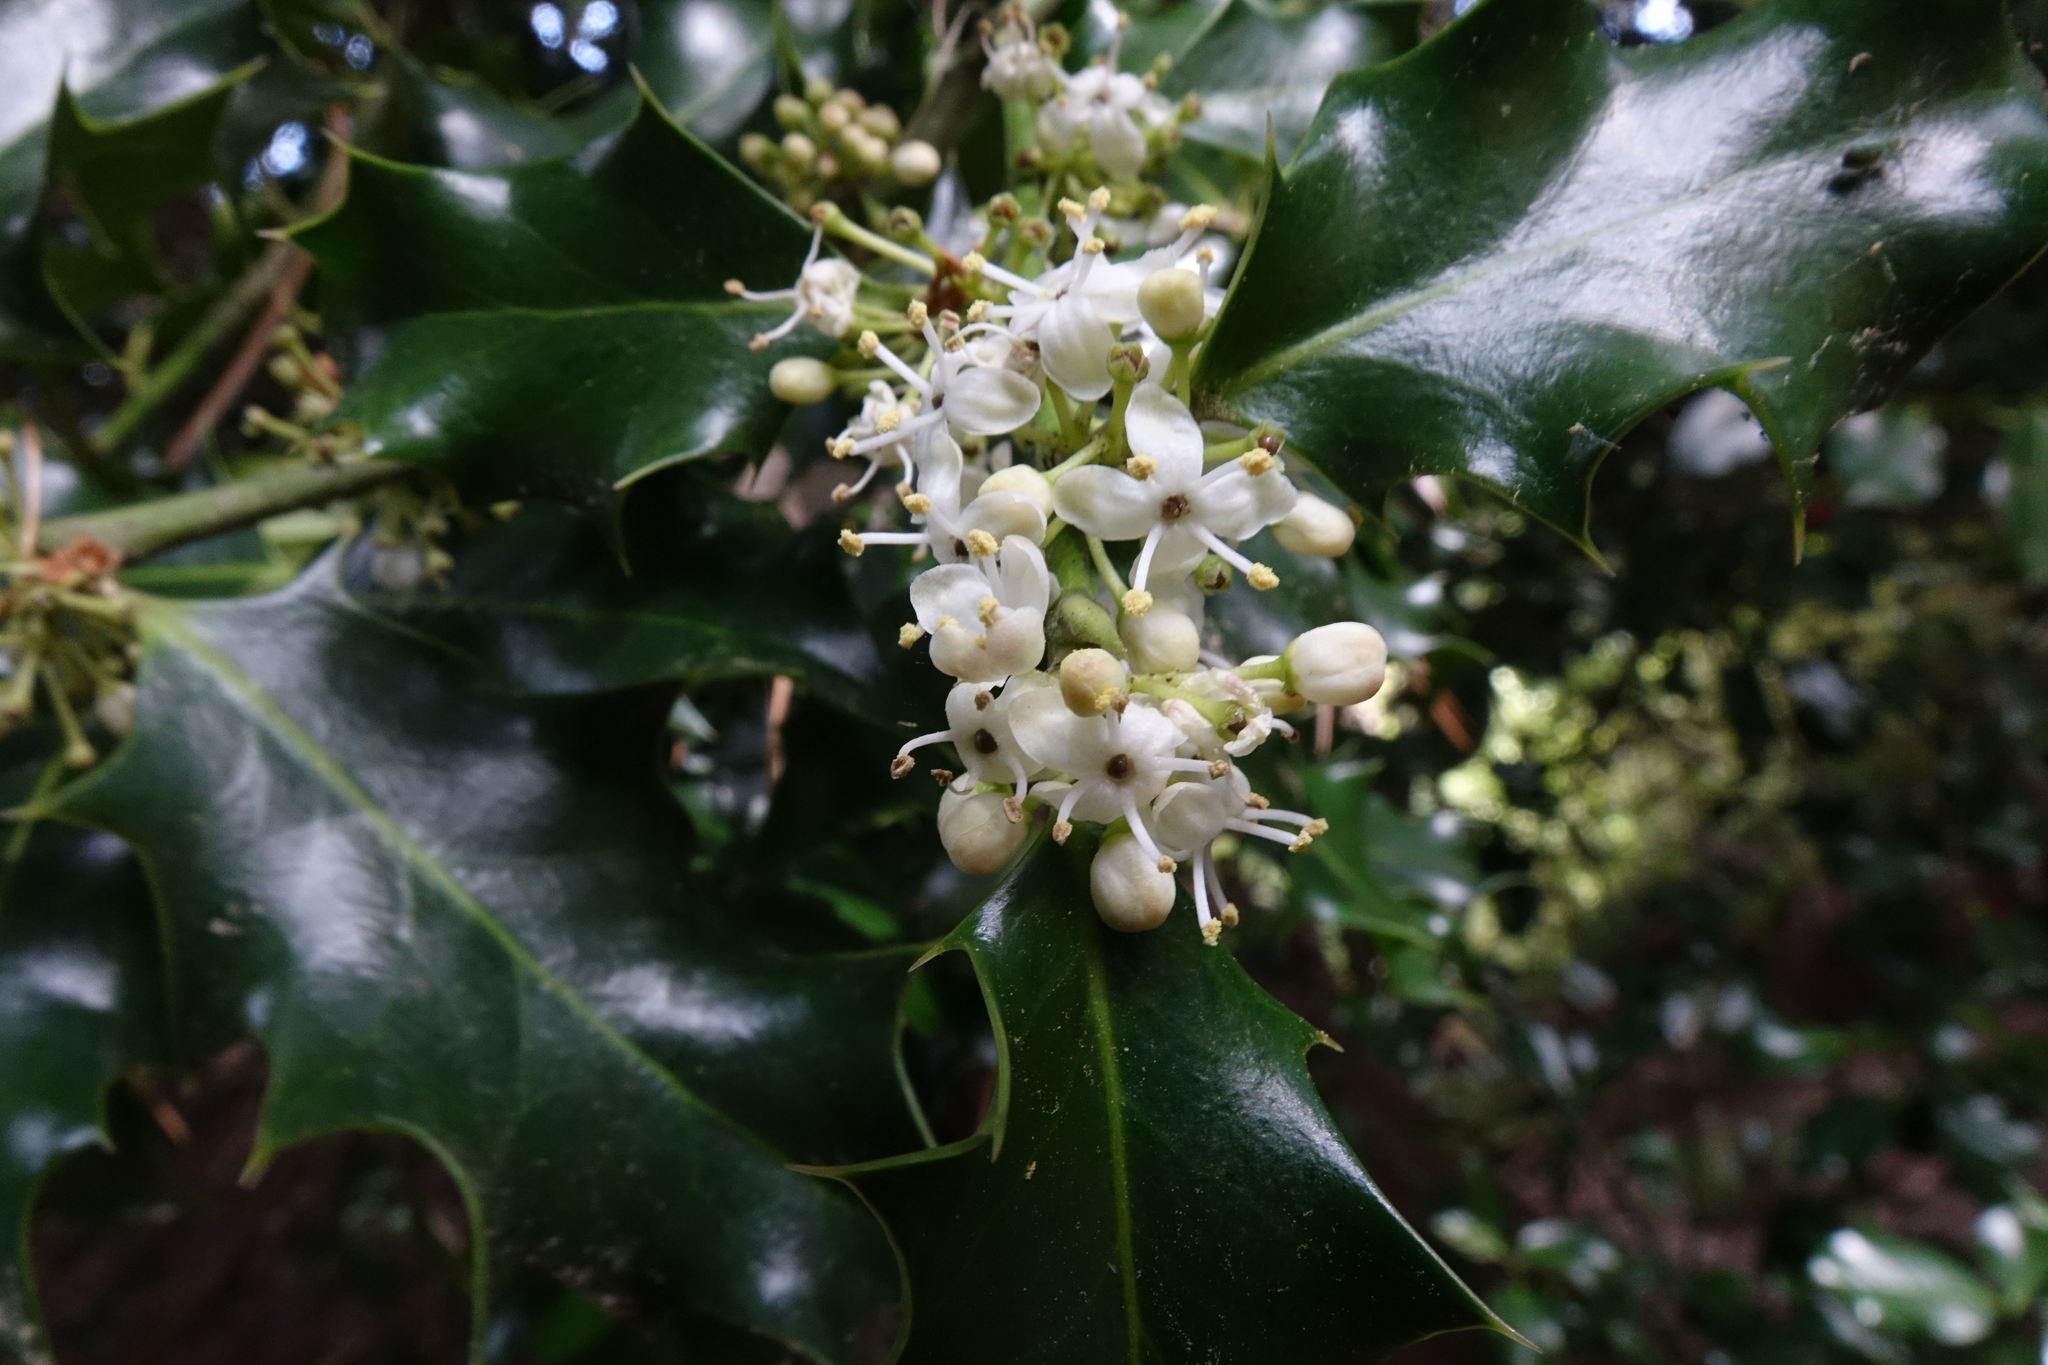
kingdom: Plantae
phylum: Tracheophyta
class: Magnoliopsida
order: Aquifoliales
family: Aquifoliaceae
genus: Ilex
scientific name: Ilex aquifolium
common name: English holly
